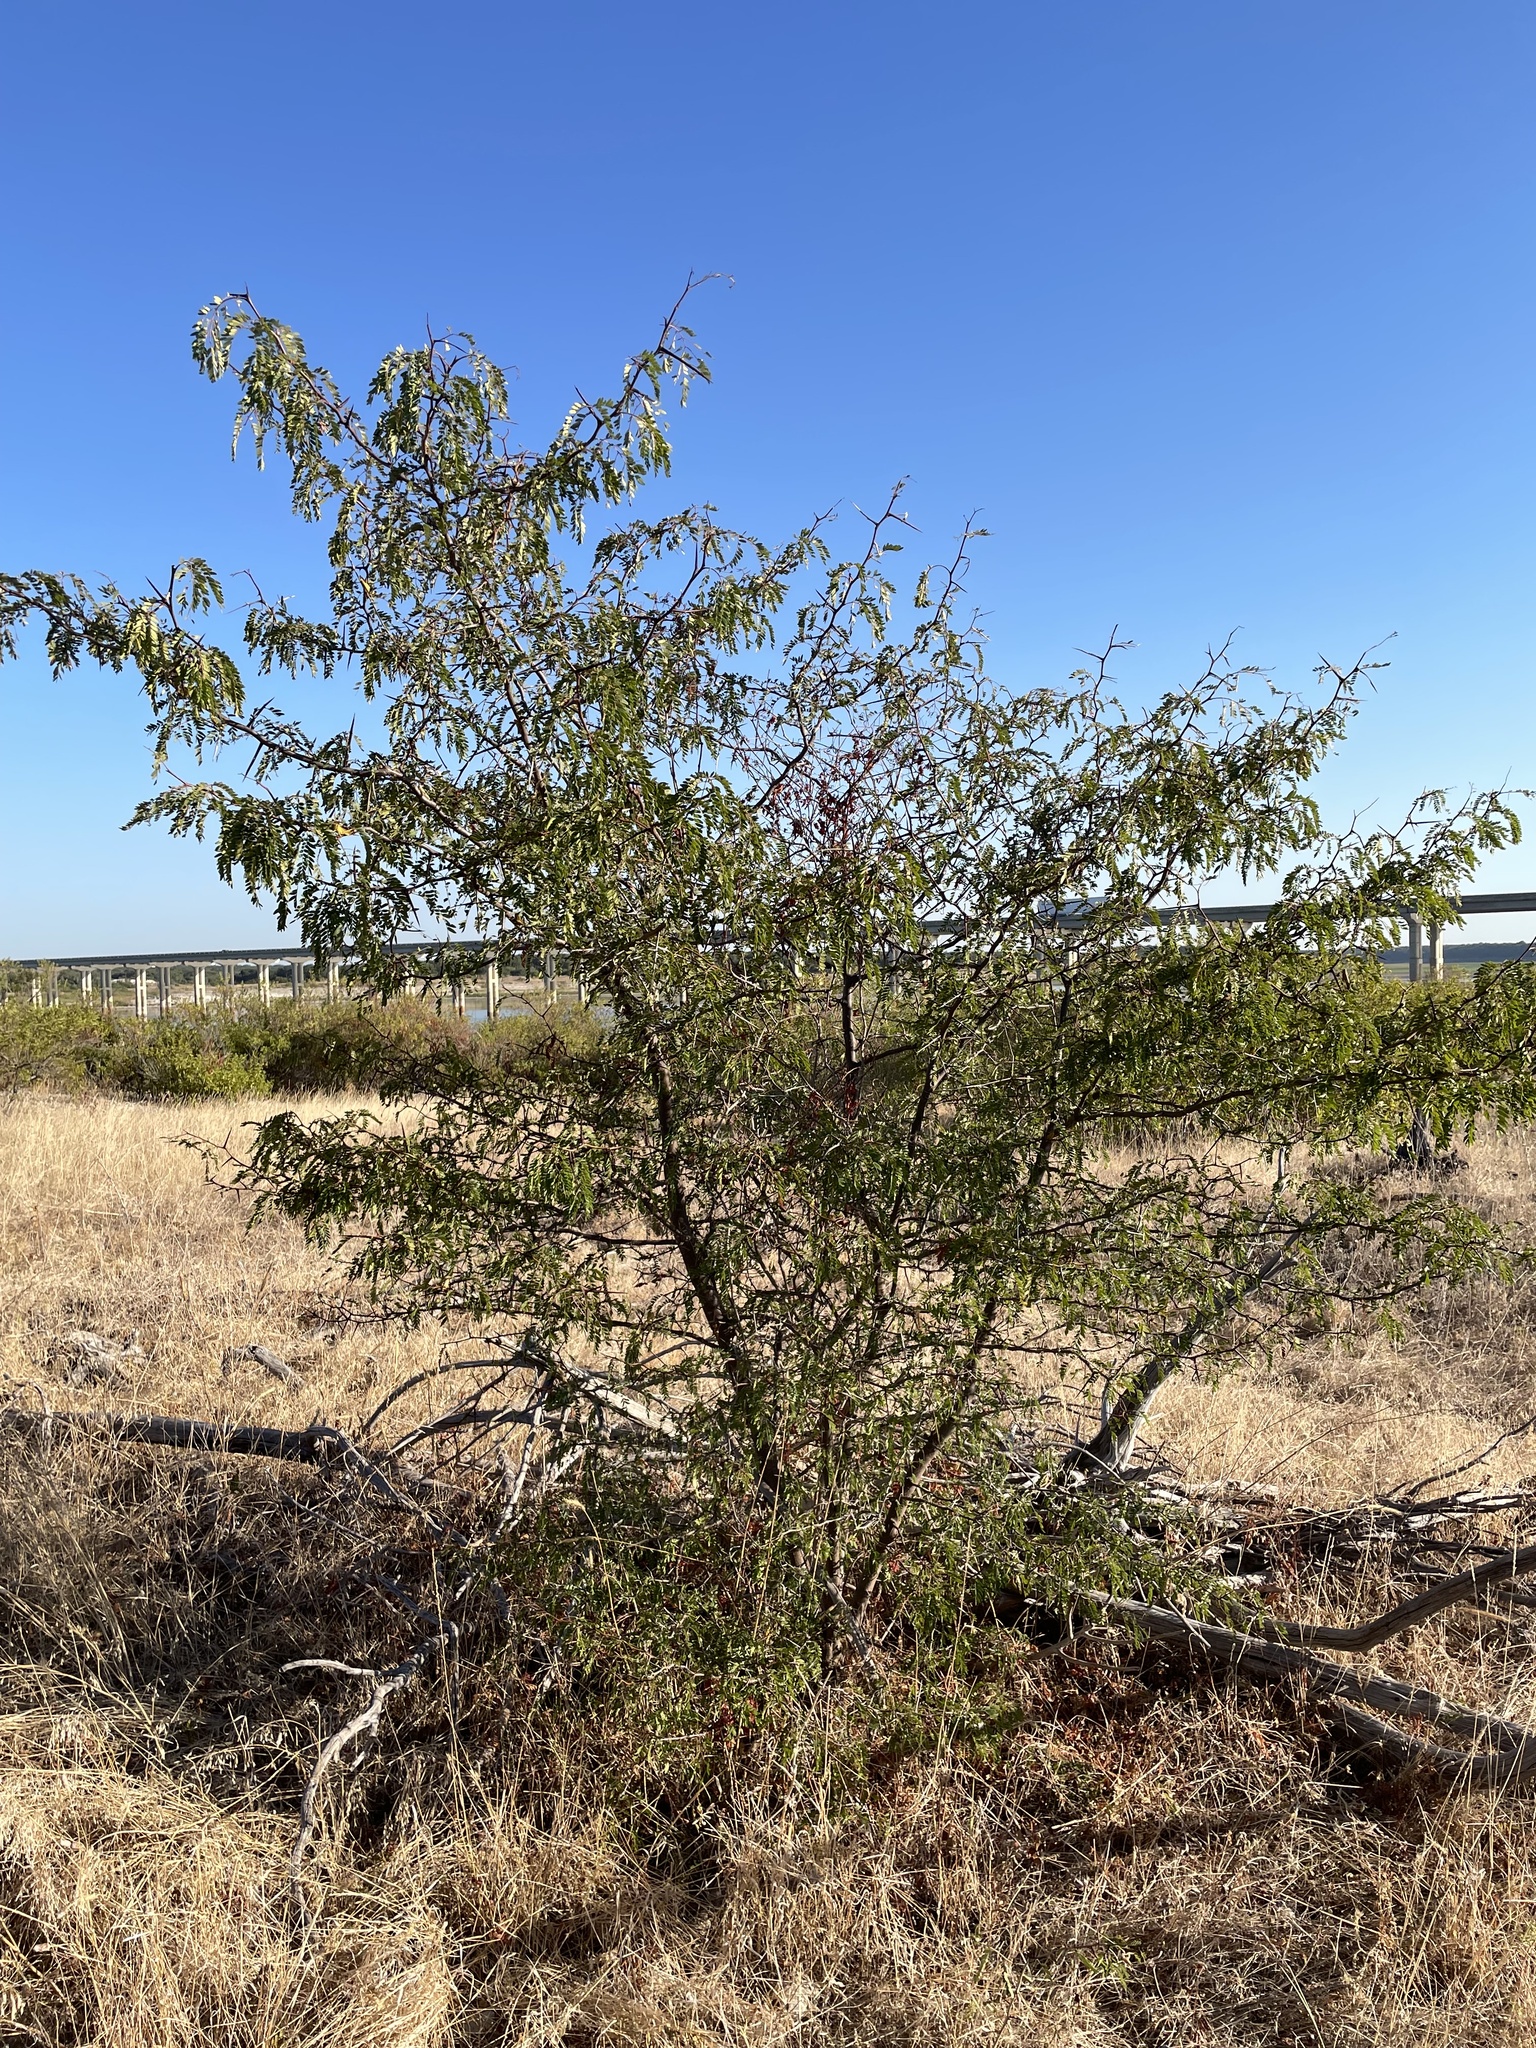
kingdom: Plantae
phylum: Tracheophyta
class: Magnoliopsida
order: Fabales
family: Fabaceae
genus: Gleditsia
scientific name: Gleditsia triacanthos
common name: Common honeylocust
